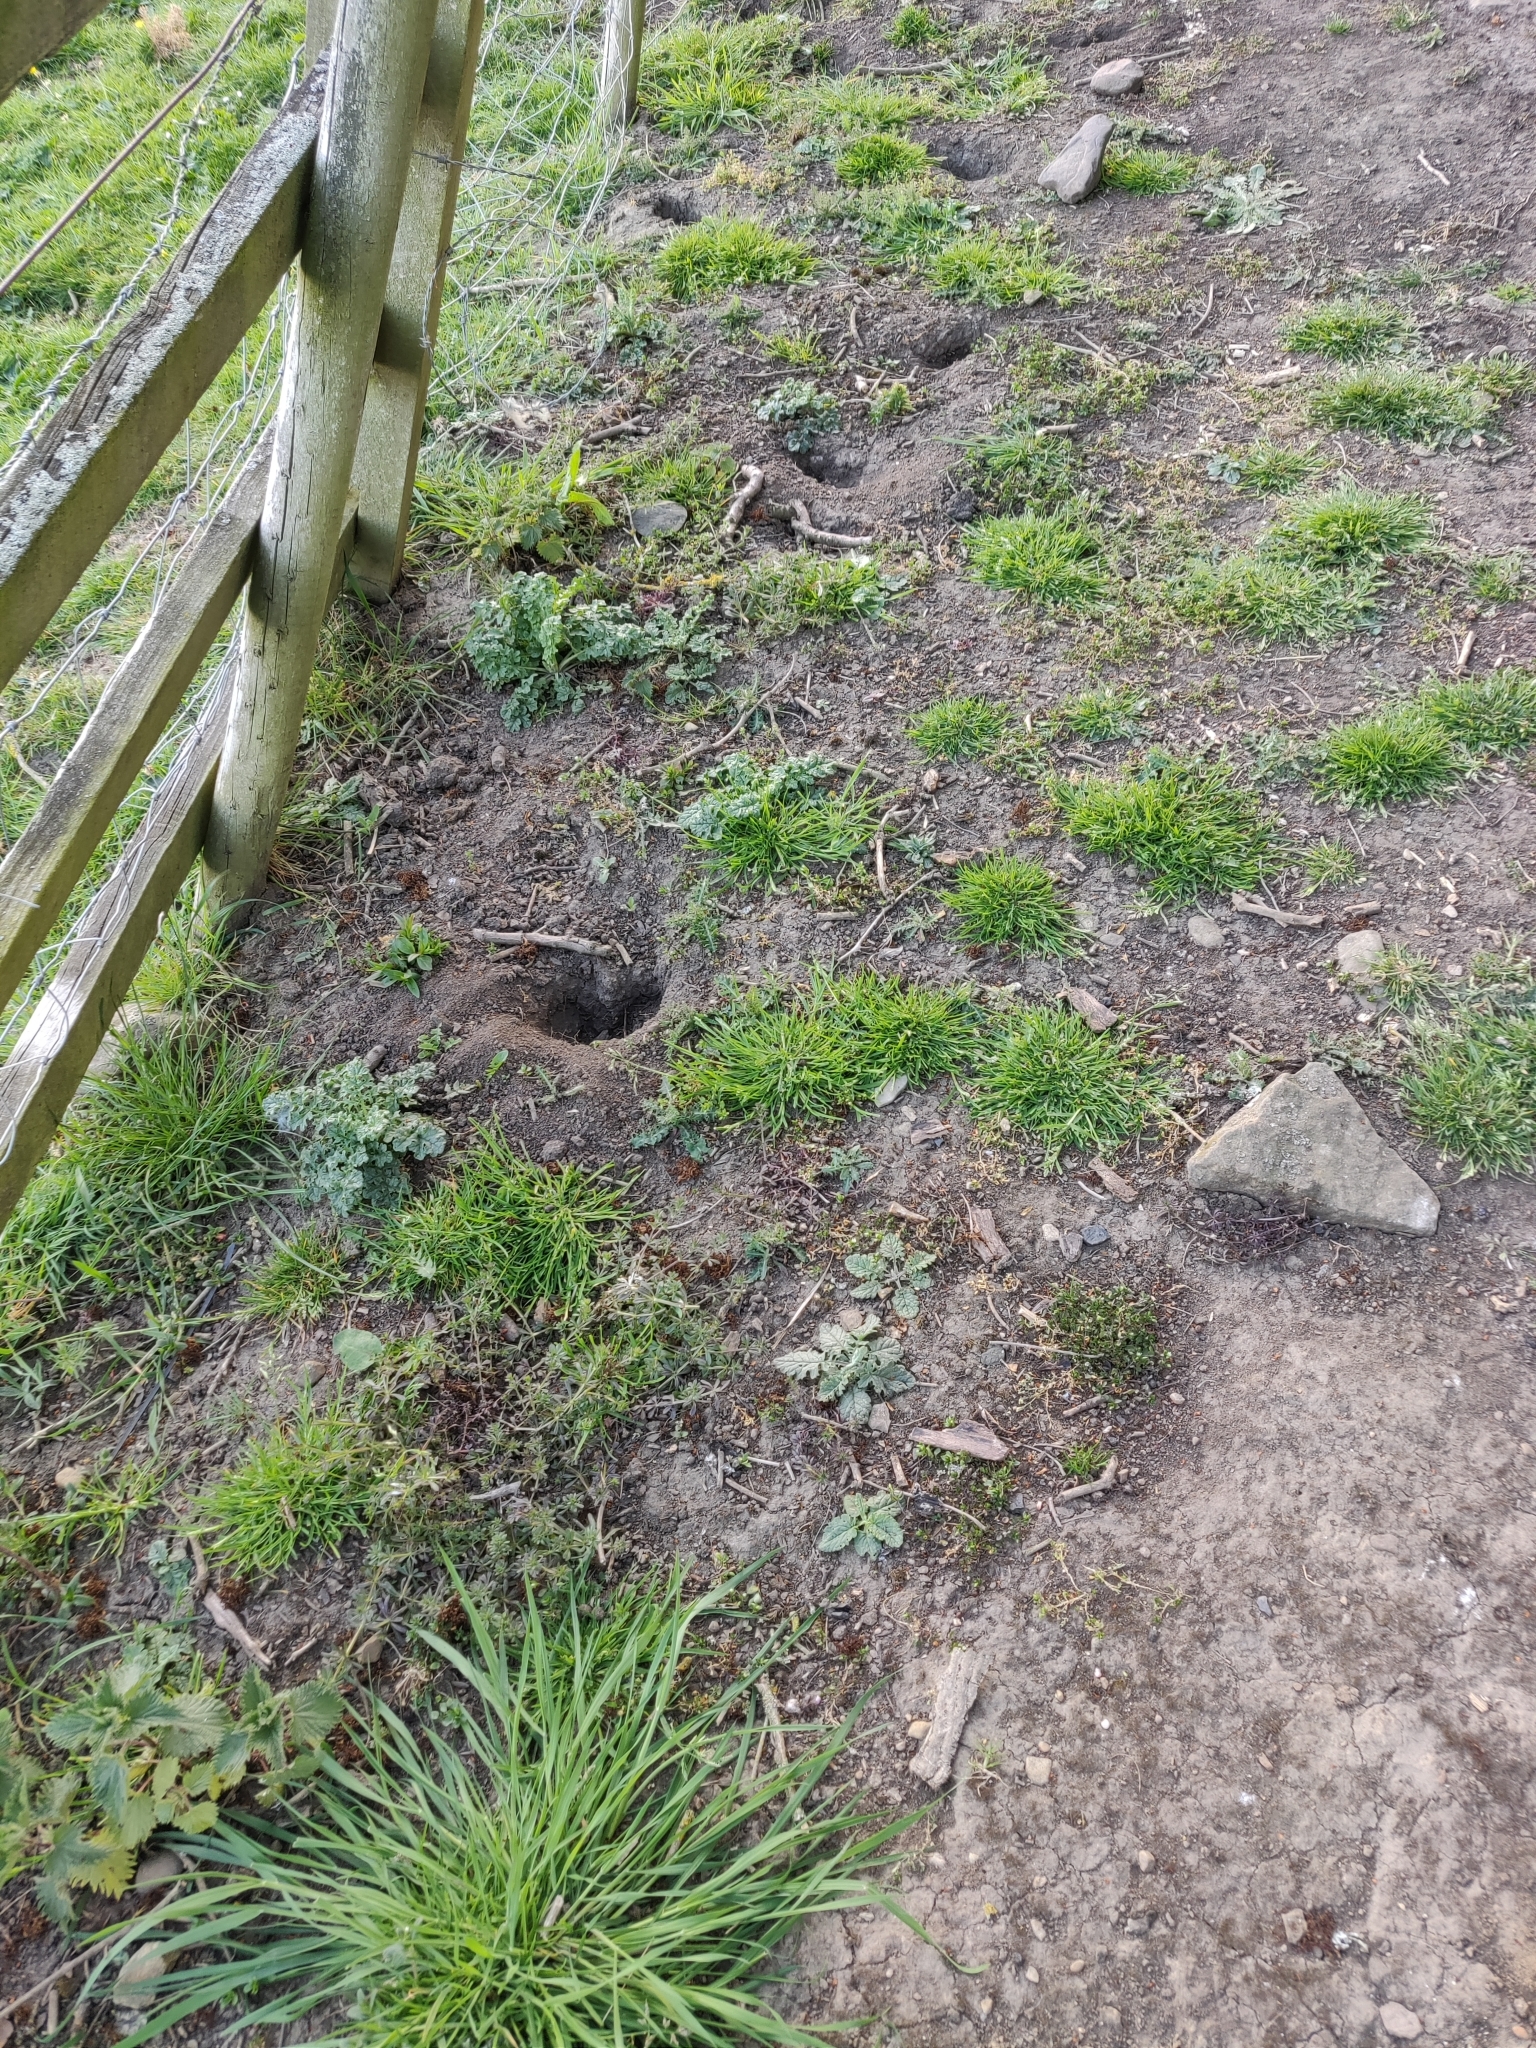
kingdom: Animalia
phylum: Chordata
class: Mammalia
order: Lagomorpha
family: Leporidae
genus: Oryctolagus
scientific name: Oryctolagus cuniculus
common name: European rabbit
